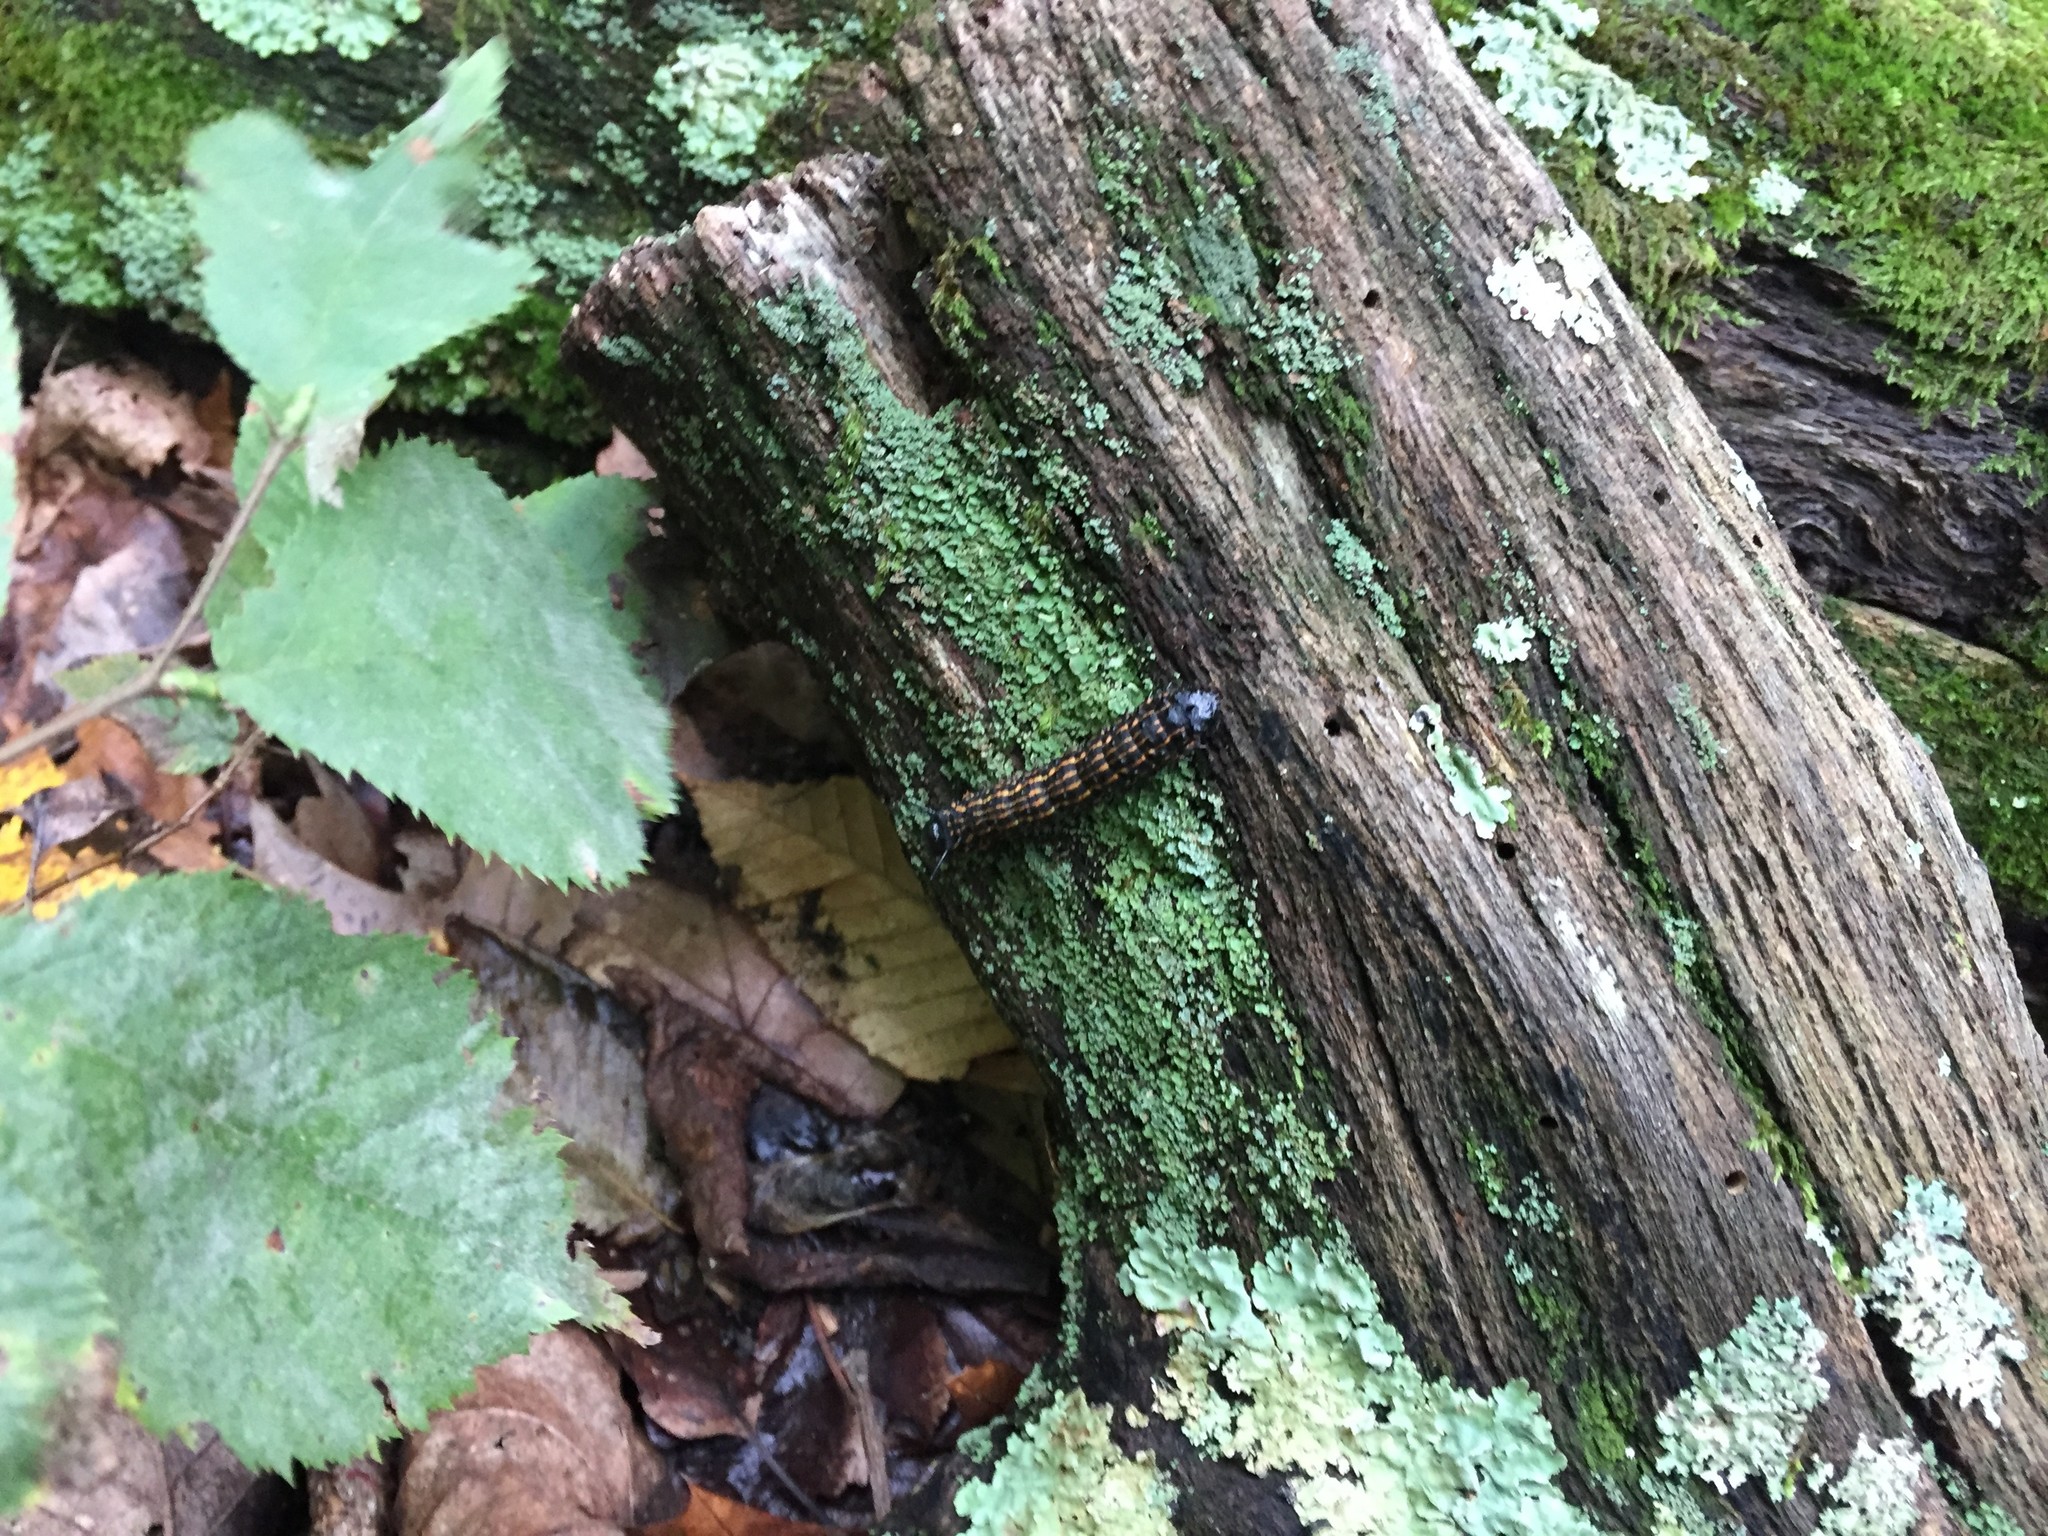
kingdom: Animalia
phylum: Arthropoda
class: Insecta
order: Lepidoptera
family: Saturniidae
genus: Anisota
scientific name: Anisota senatoria
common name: Orange-striped oakworm moth
